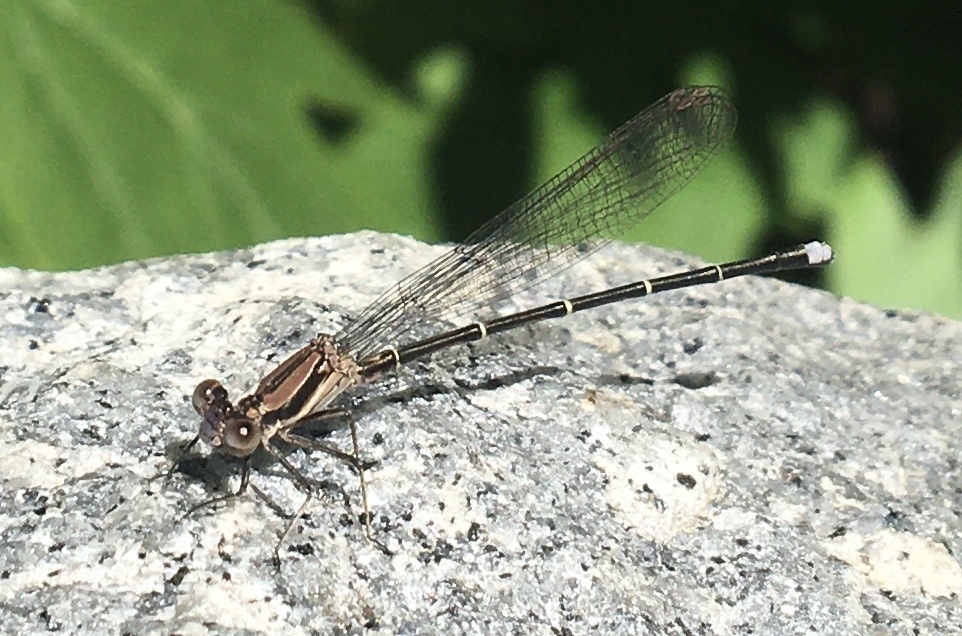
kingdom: Animalia
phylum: Arthropoda
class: Insecta
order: Odonata
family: Coenagrionidae
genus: Argia
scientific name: Argia tibialis
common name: Blue-tipped dancer
